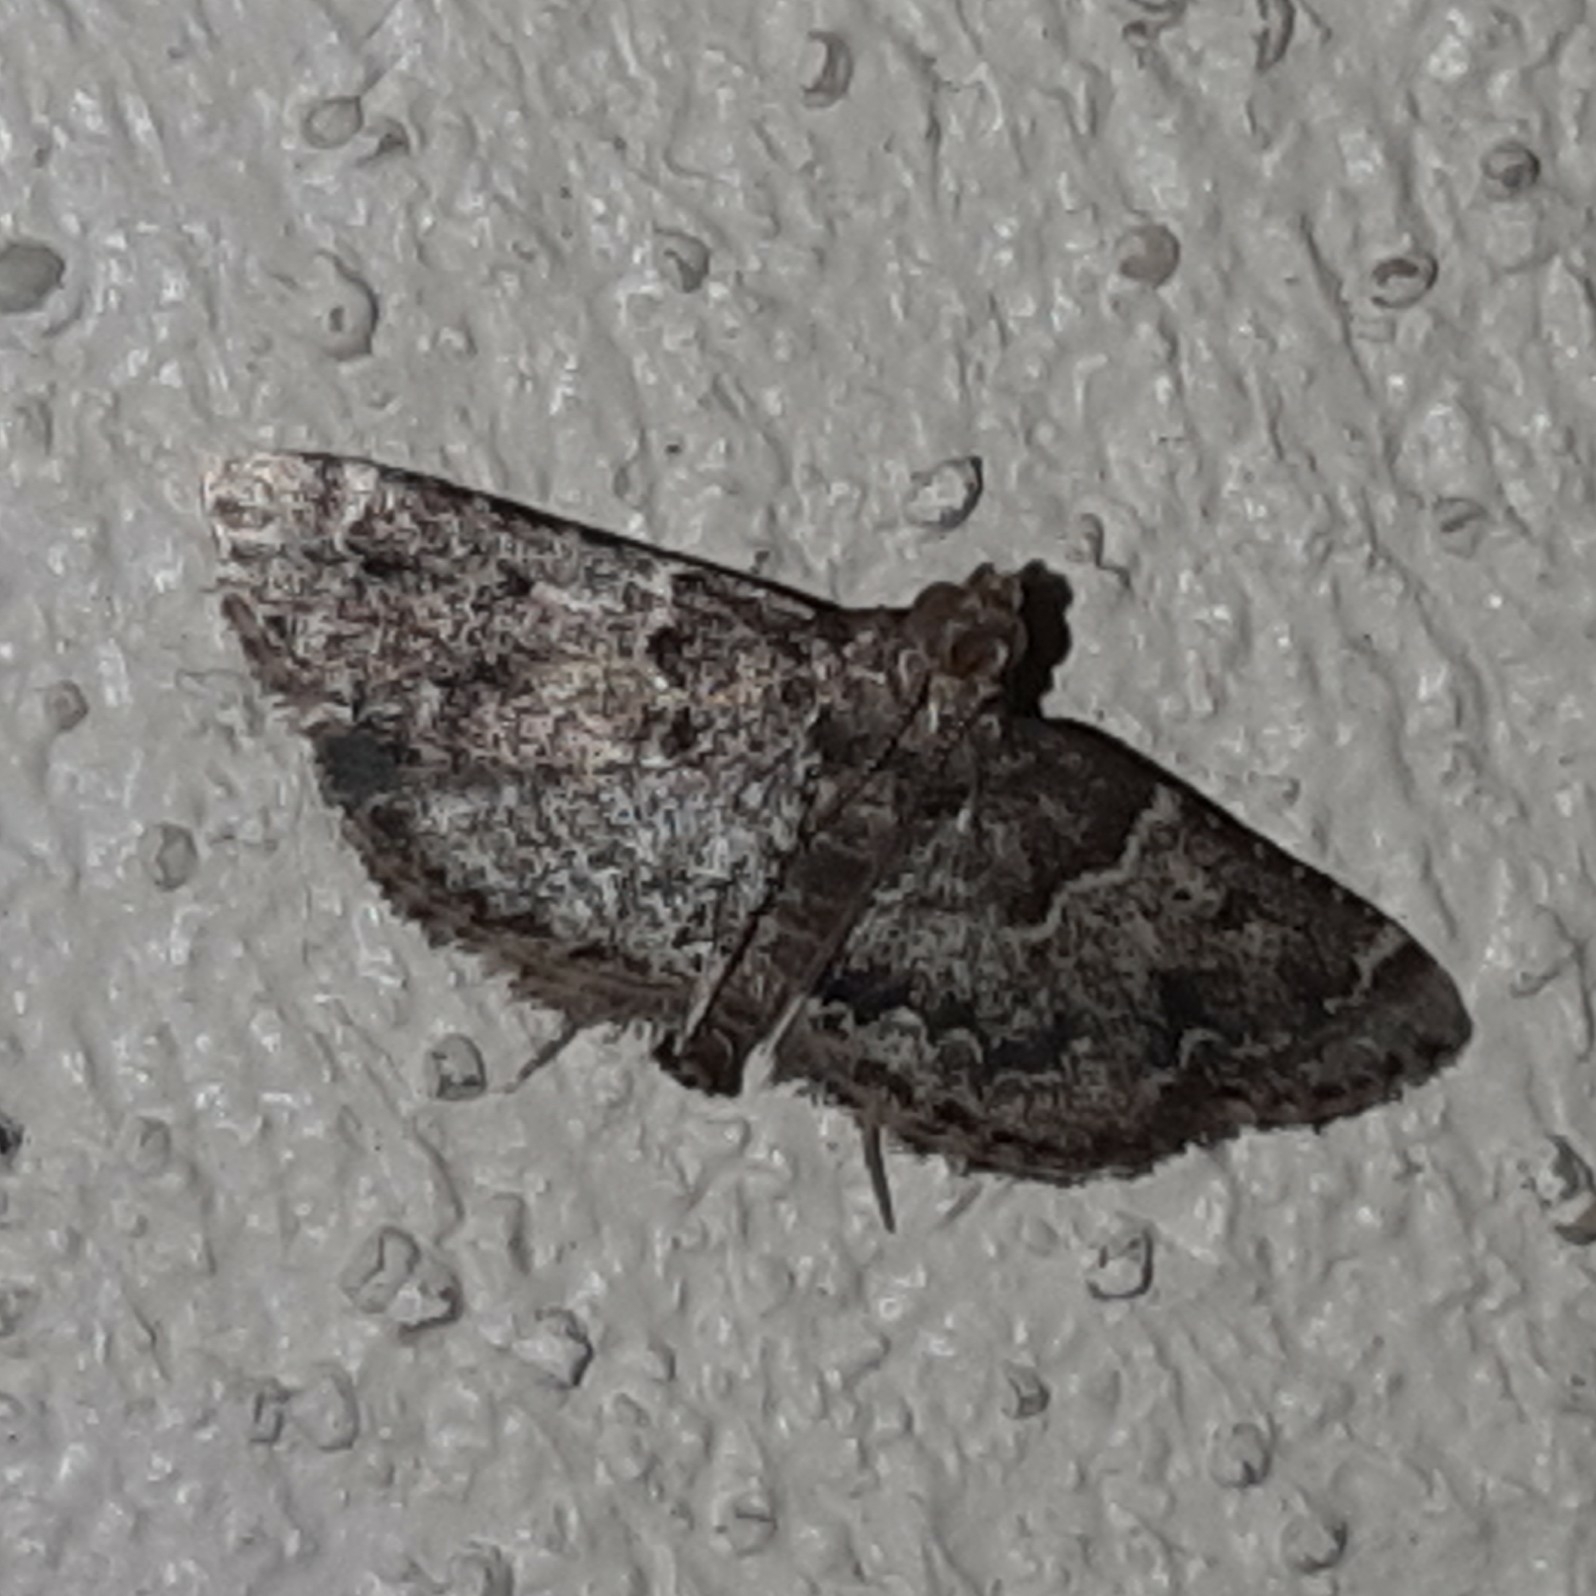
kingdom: Animalia
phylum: Arthropoda
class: Insecta
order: Lepidoptera
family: Pyralidae
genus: Pyralis
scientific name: Pyralis manihotalis
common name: Moth
